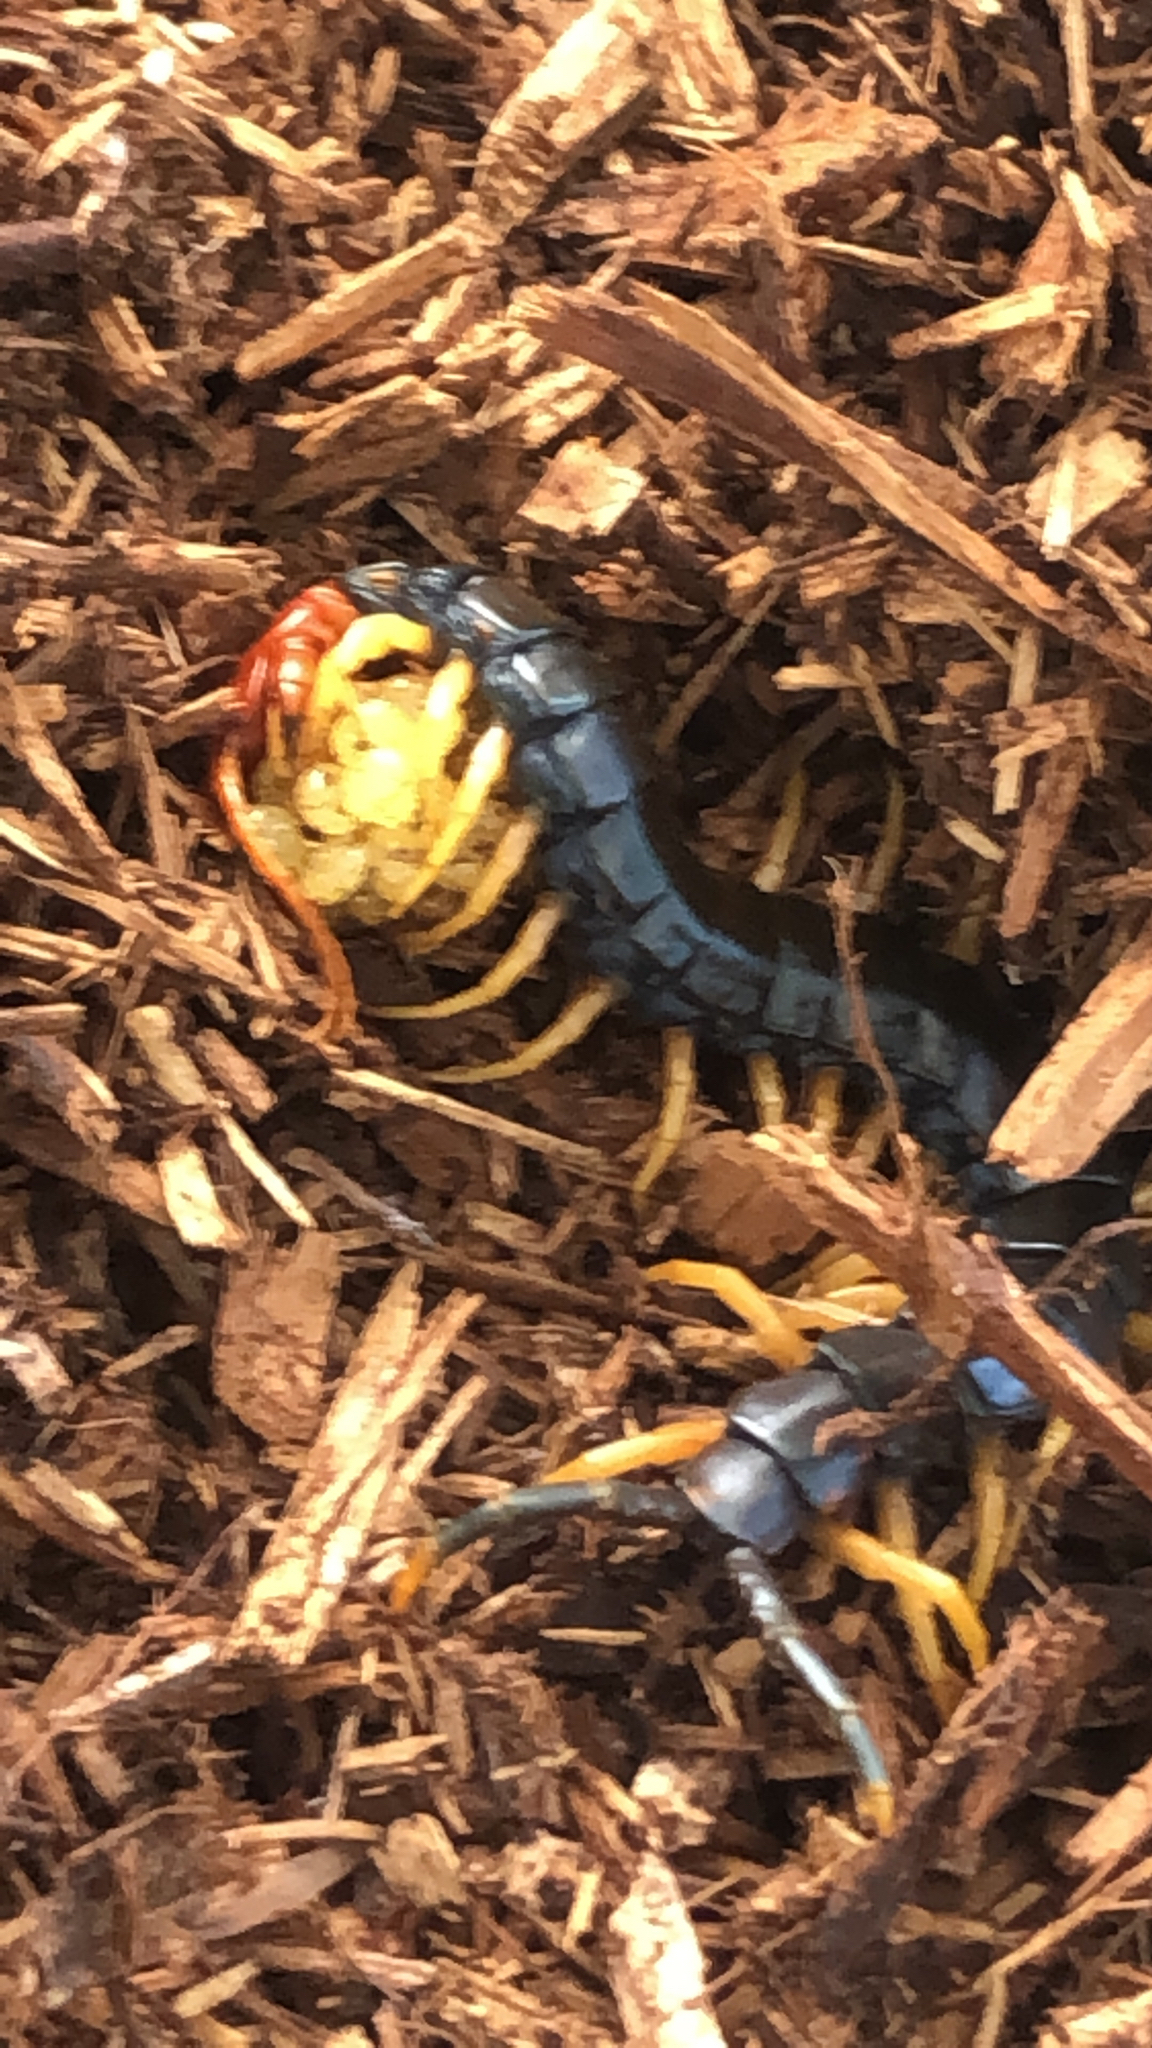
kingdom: Animalia
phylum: Arthropoda
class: Chilopoda
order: Scolopendromorpha
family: Scolopendridae
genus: Scolopendra
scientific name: Scolopendra heros
